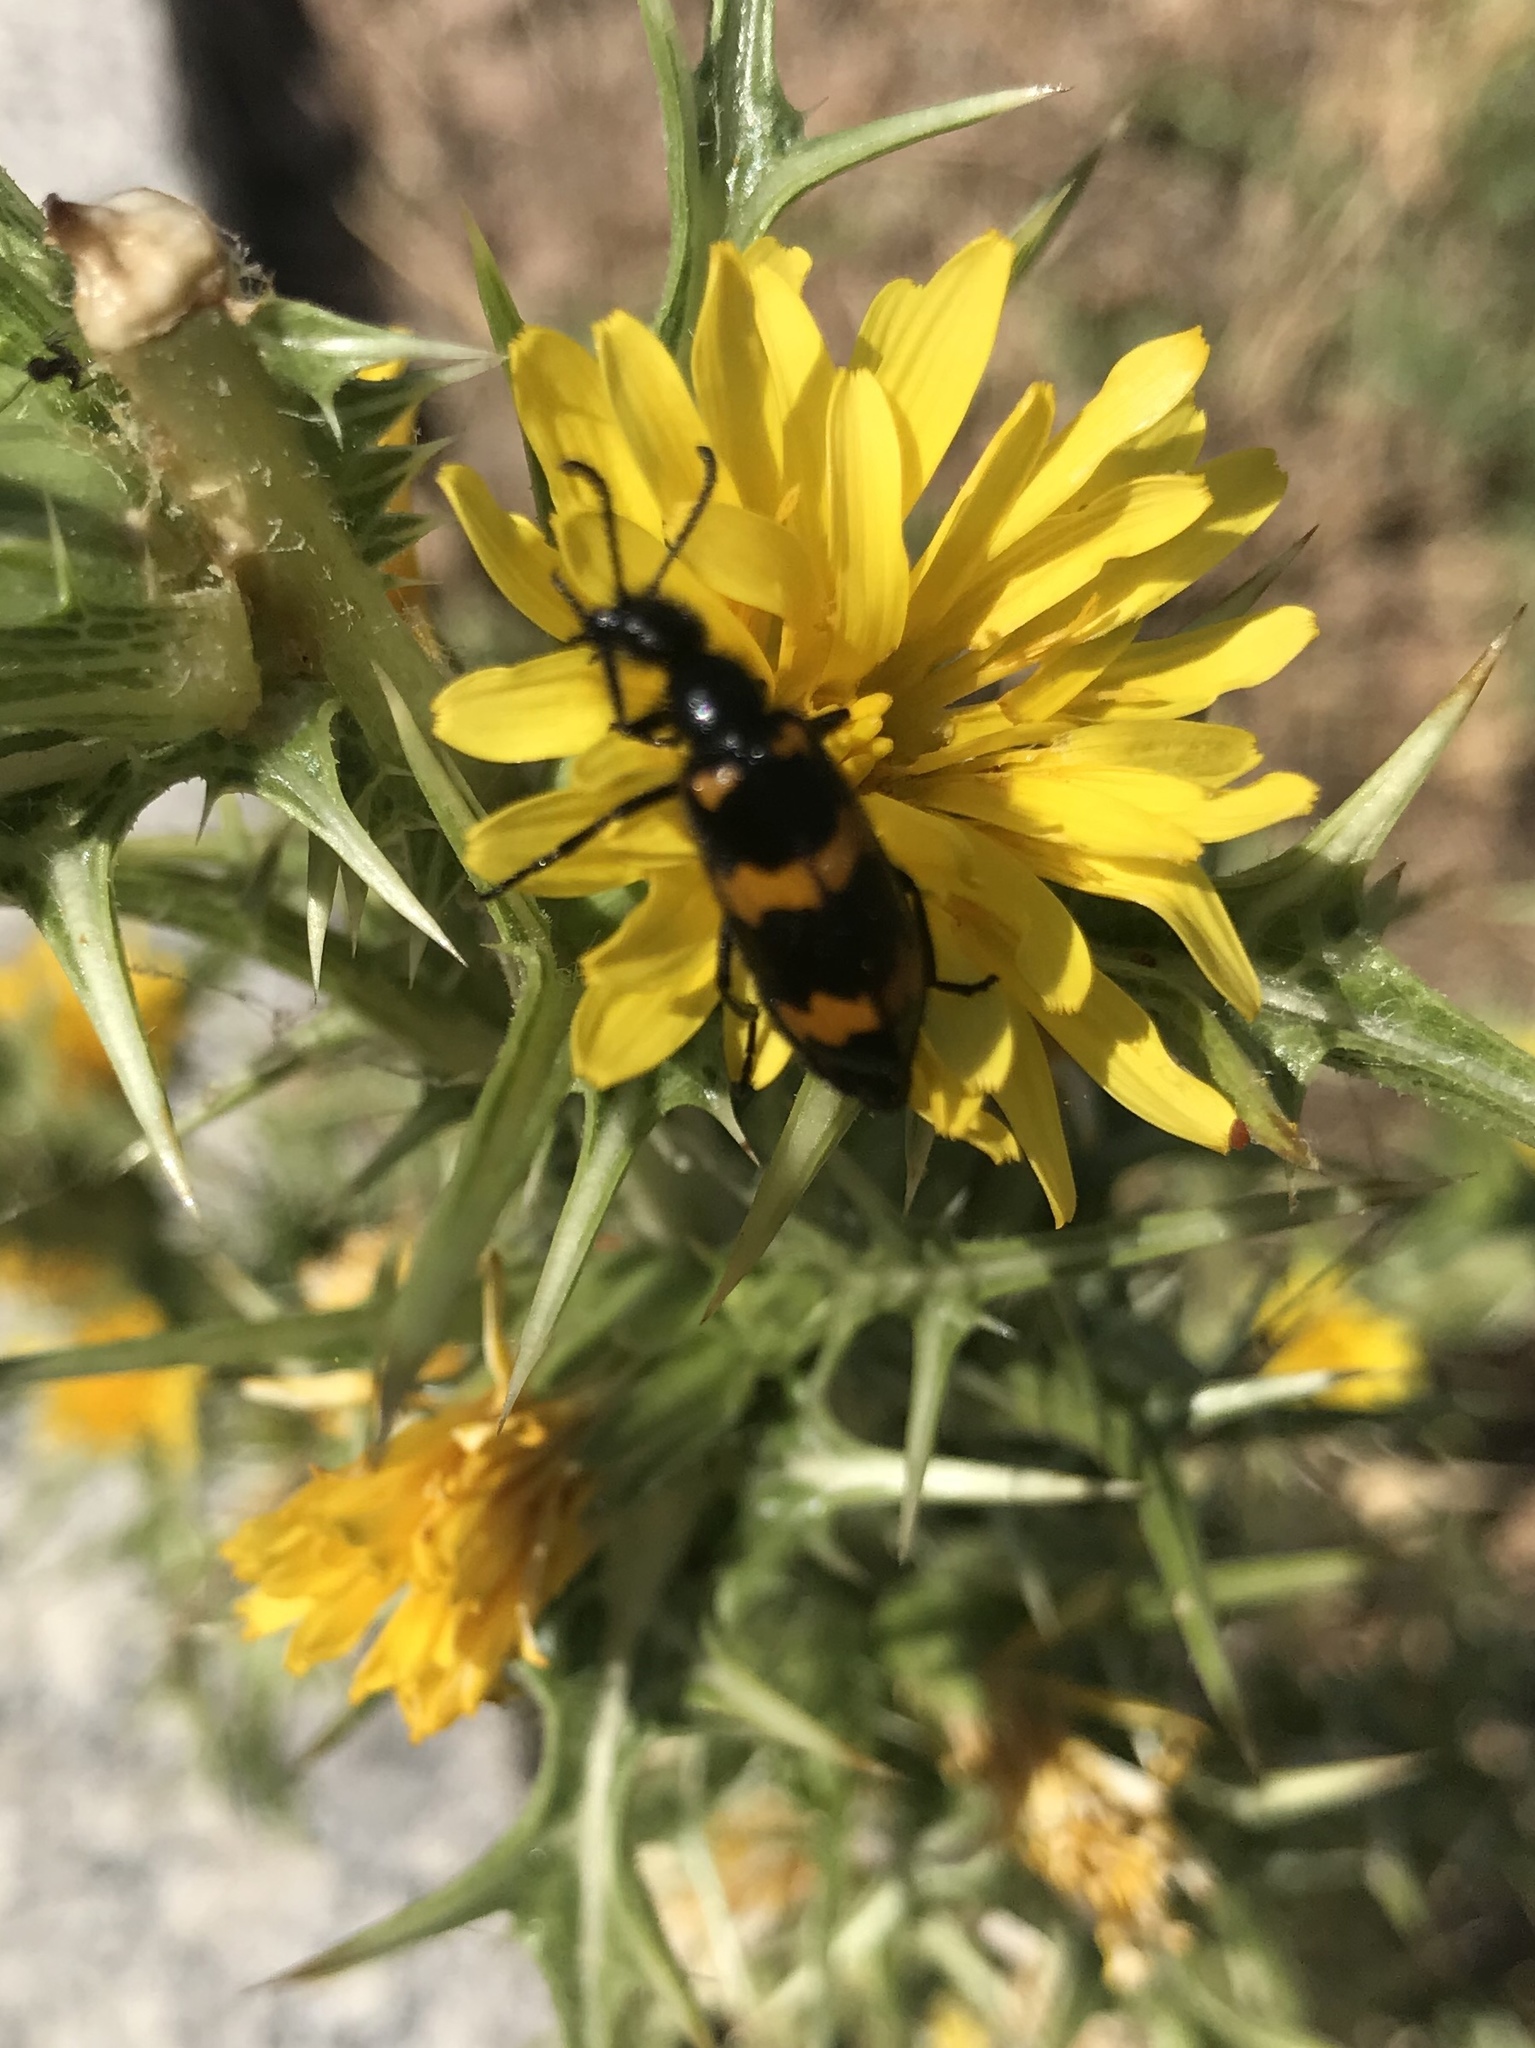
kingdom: Animalia
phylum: Arthropoda
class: Insecta
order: Coleoptera
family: Meloidae
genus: Mylabris
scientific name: Mylabris variabilis
